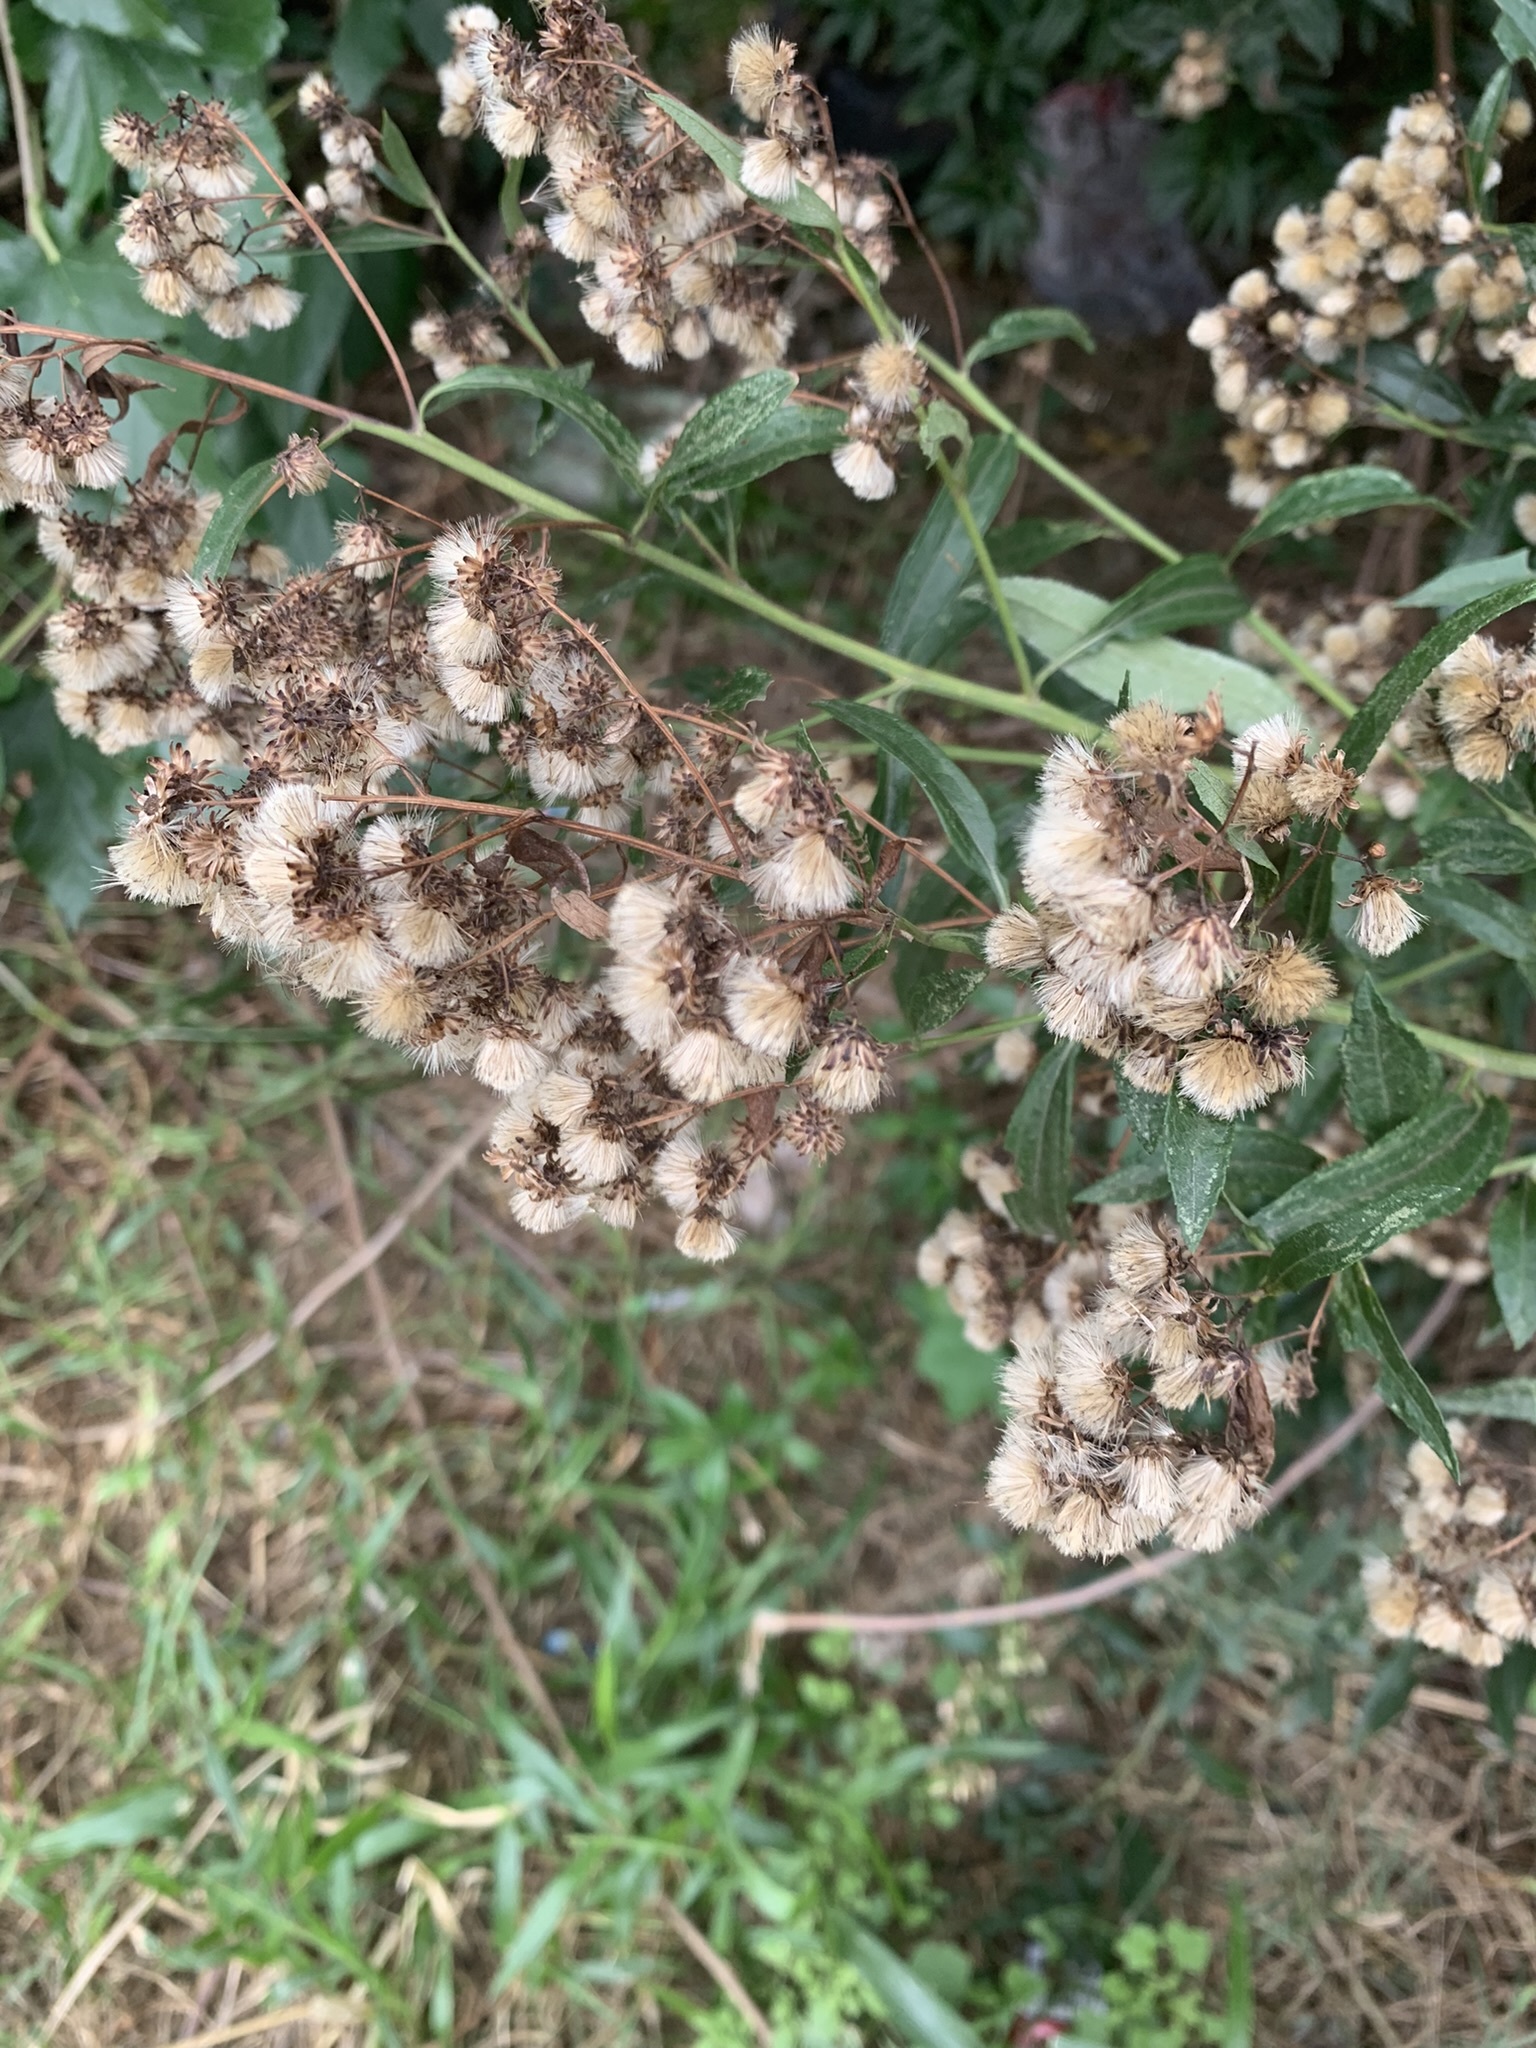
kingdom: Plantae
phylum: Tracheophyta
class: Magnoliopsida
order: Asterales
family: Asteraceae
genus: Baccharis
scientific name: Baccharis punctulata
